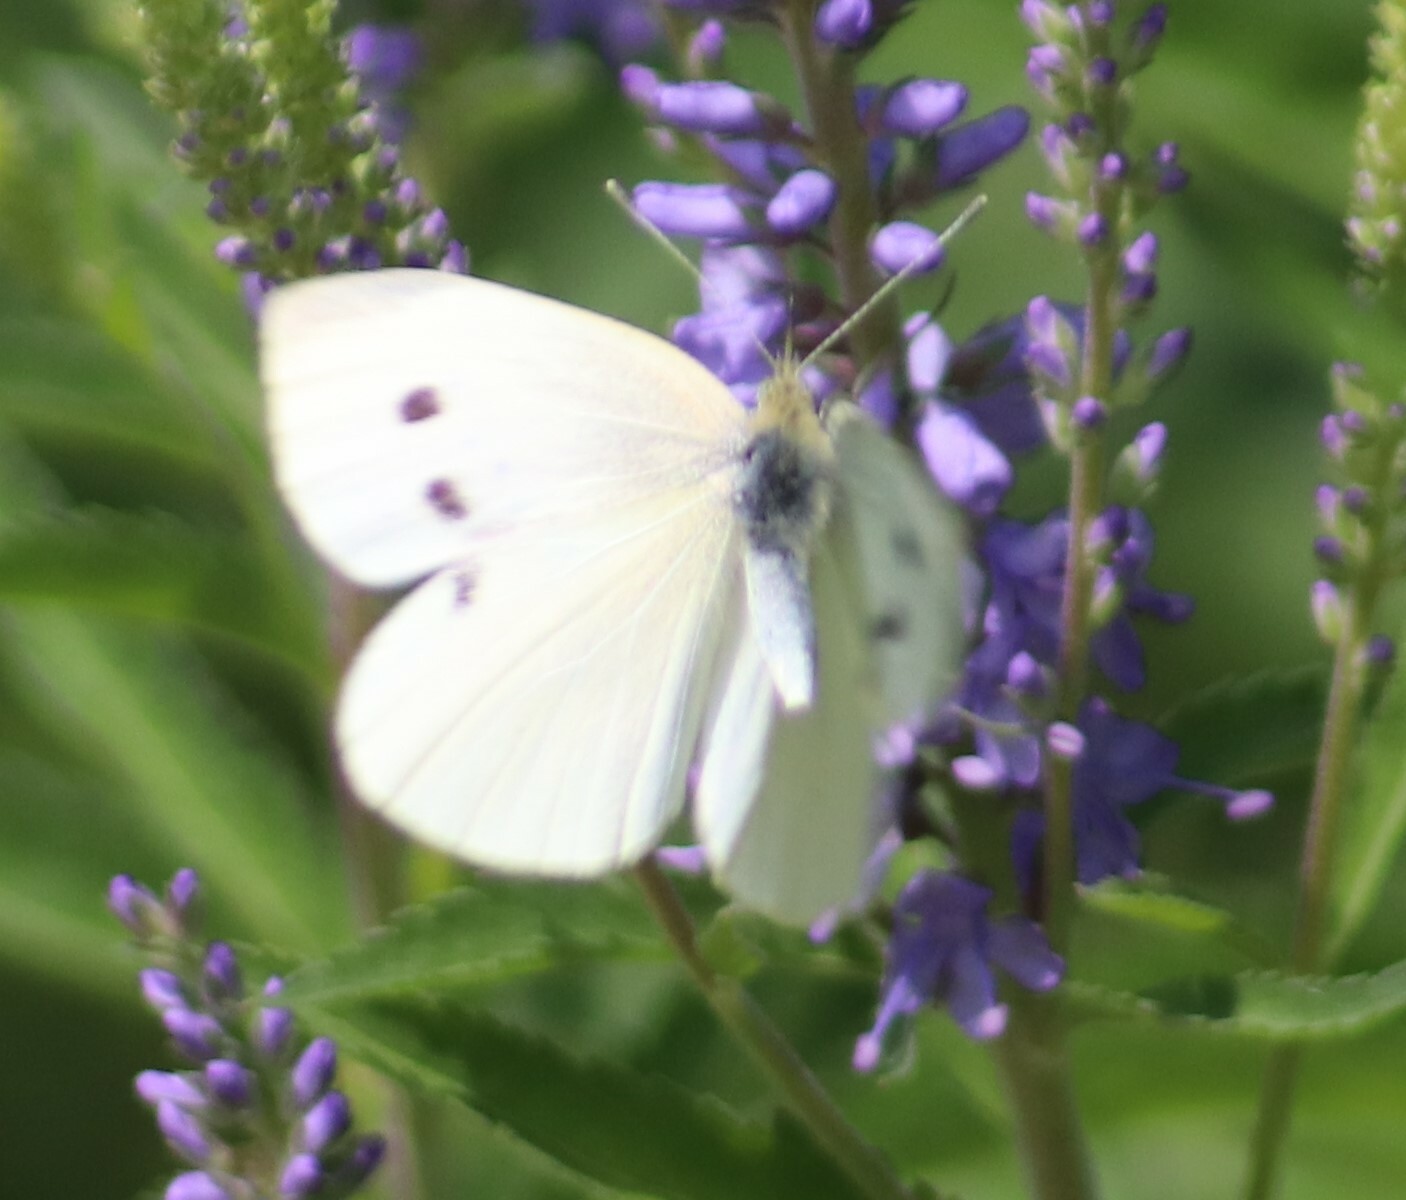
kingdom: Animalia
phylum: Arthropoda
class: Insecta
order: Lepidoptera
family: Pieridae
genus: Pieris
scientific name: Pieris rapae
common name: Small white
